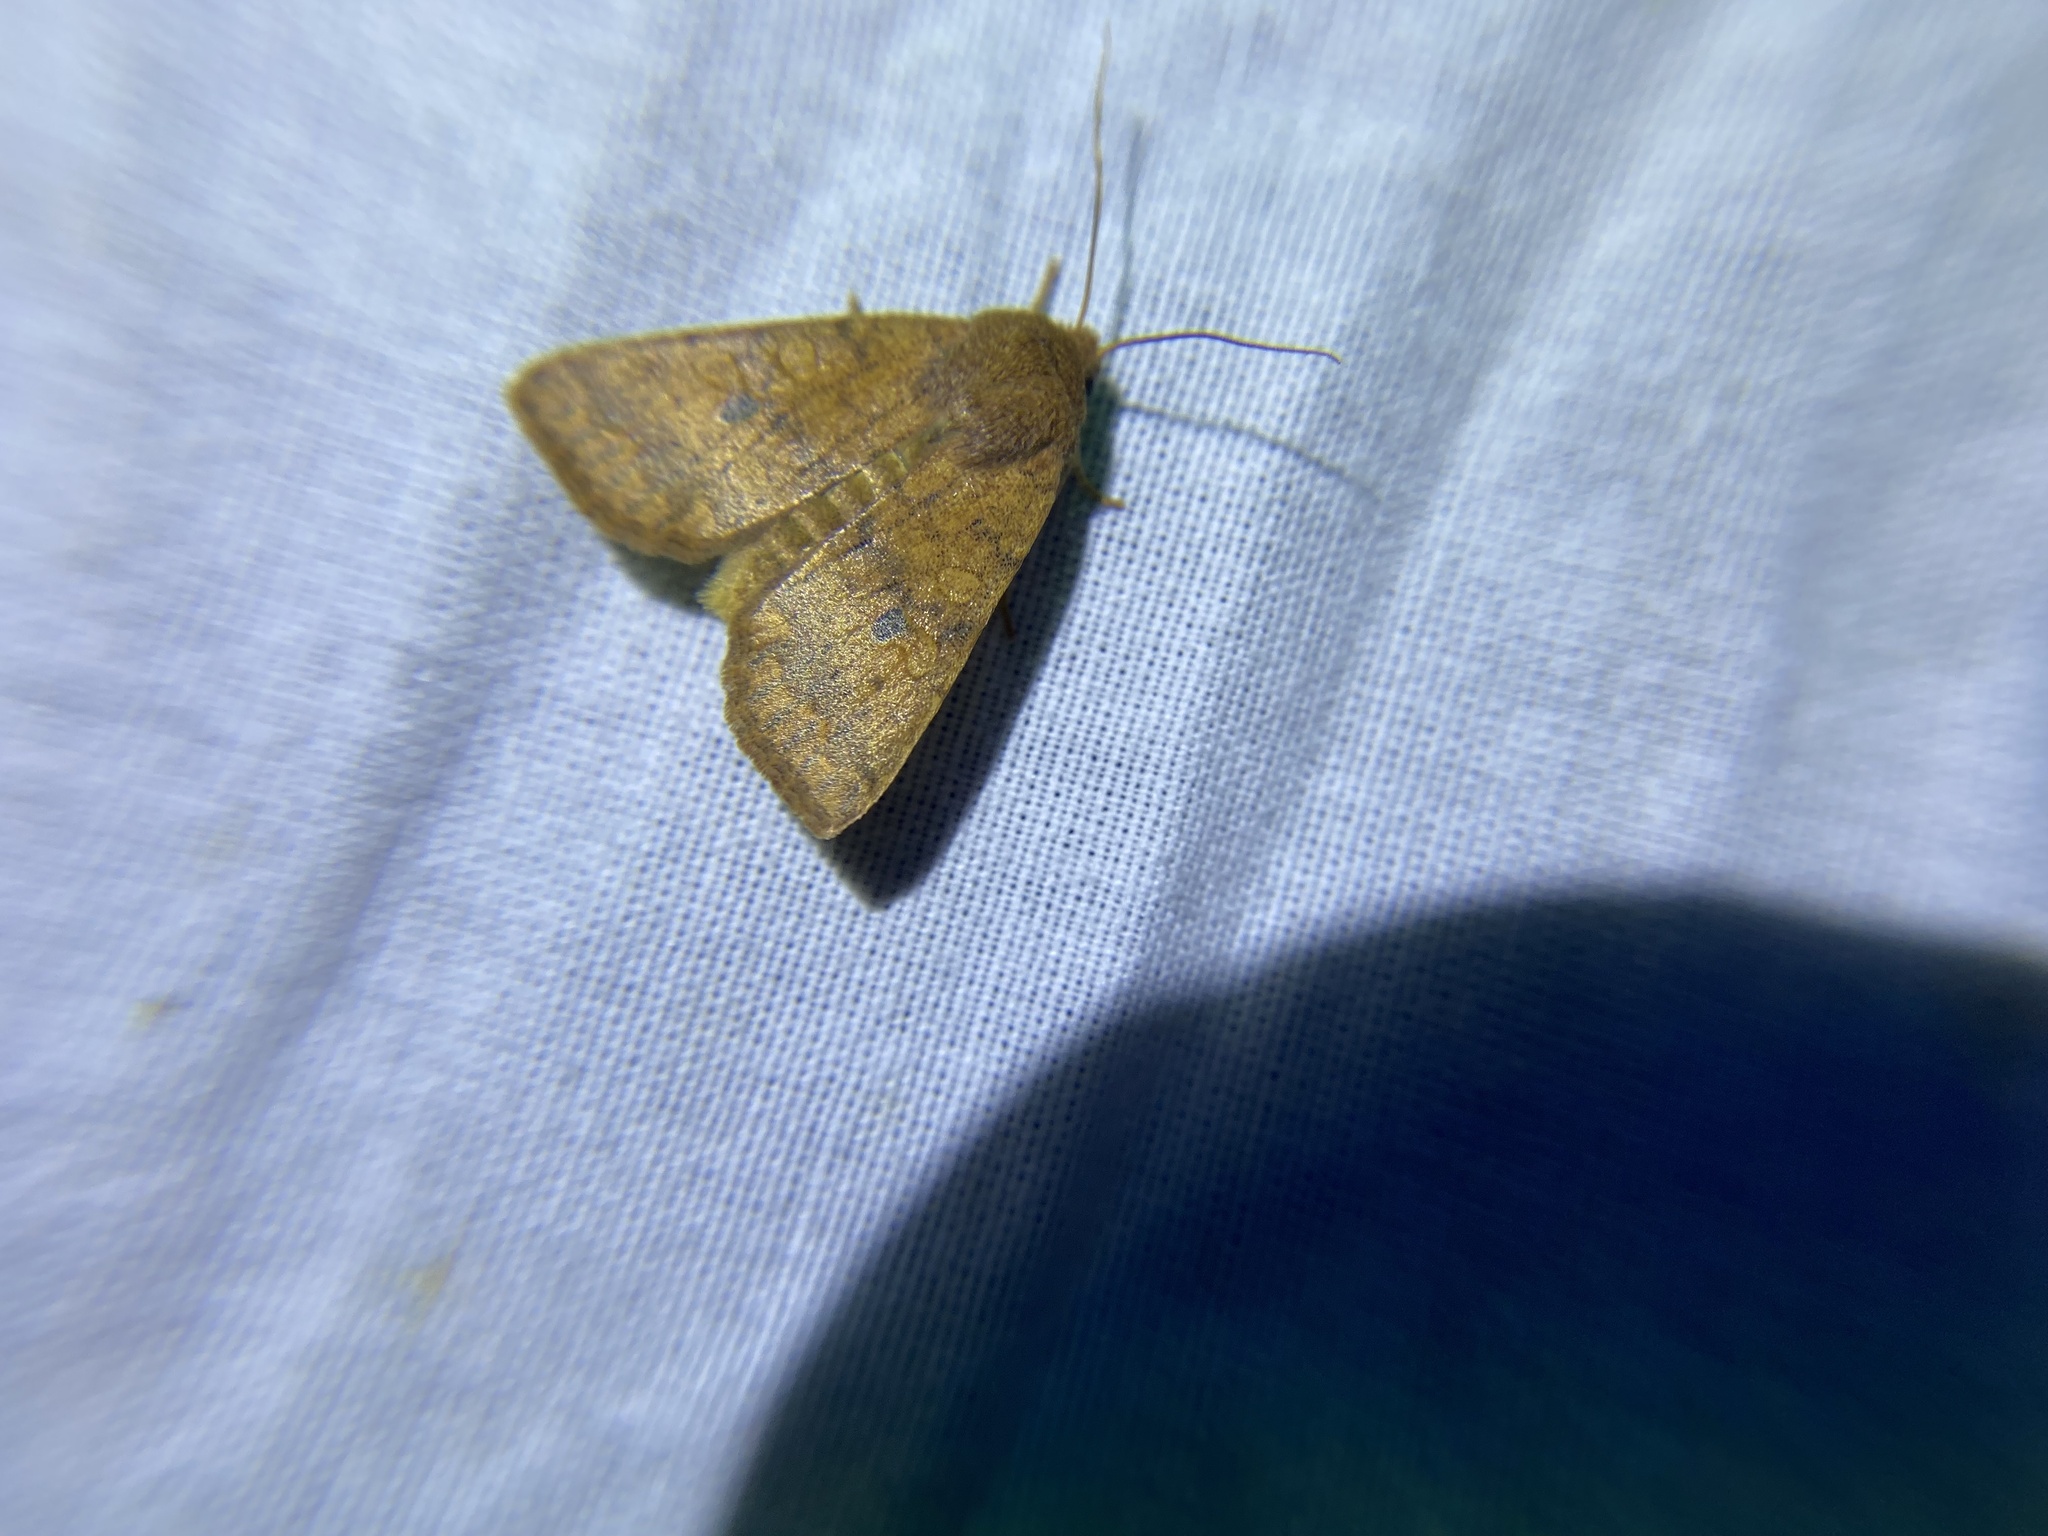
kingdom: Animalia
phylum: Arthropoda
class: Insecta
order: Lepidoptera
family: Noctuidae
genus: Agrochola
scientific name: Agrochola bicolorago
